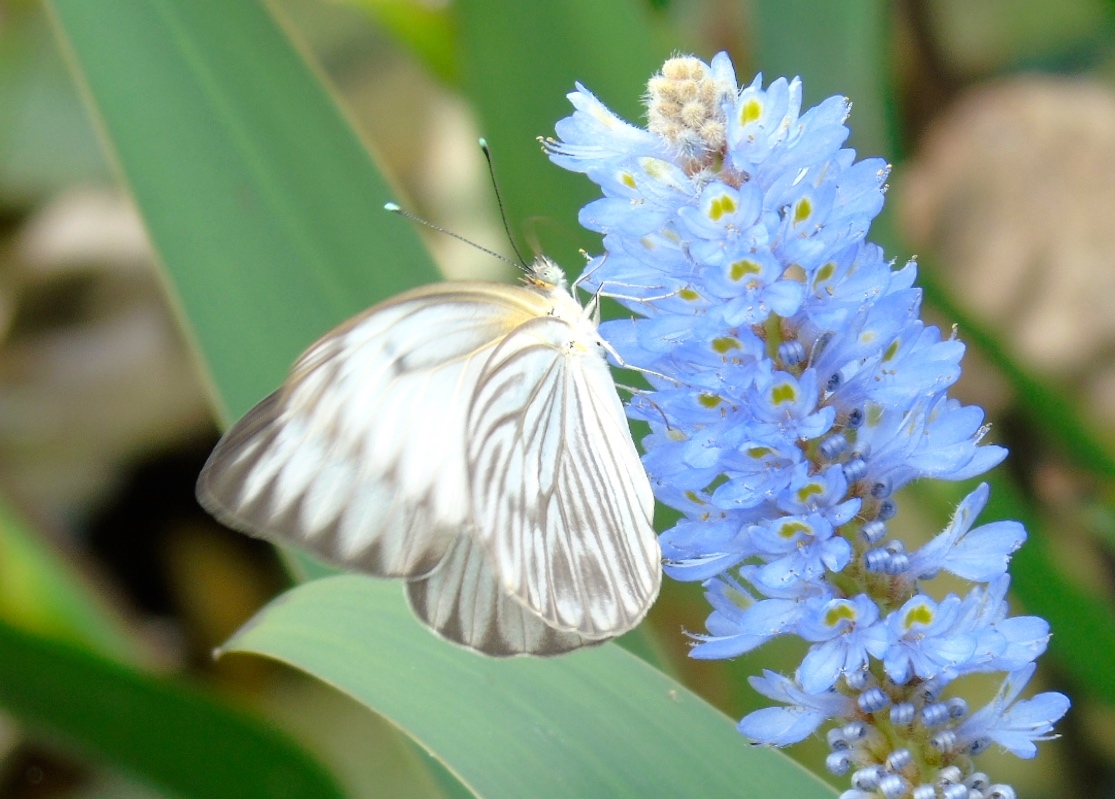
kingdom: Animalia
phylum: Arthropoda
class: Insecta
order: Lepidoptera
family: Pieridae
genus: Ascia
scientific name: Ascia monuste
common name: Great southern white
